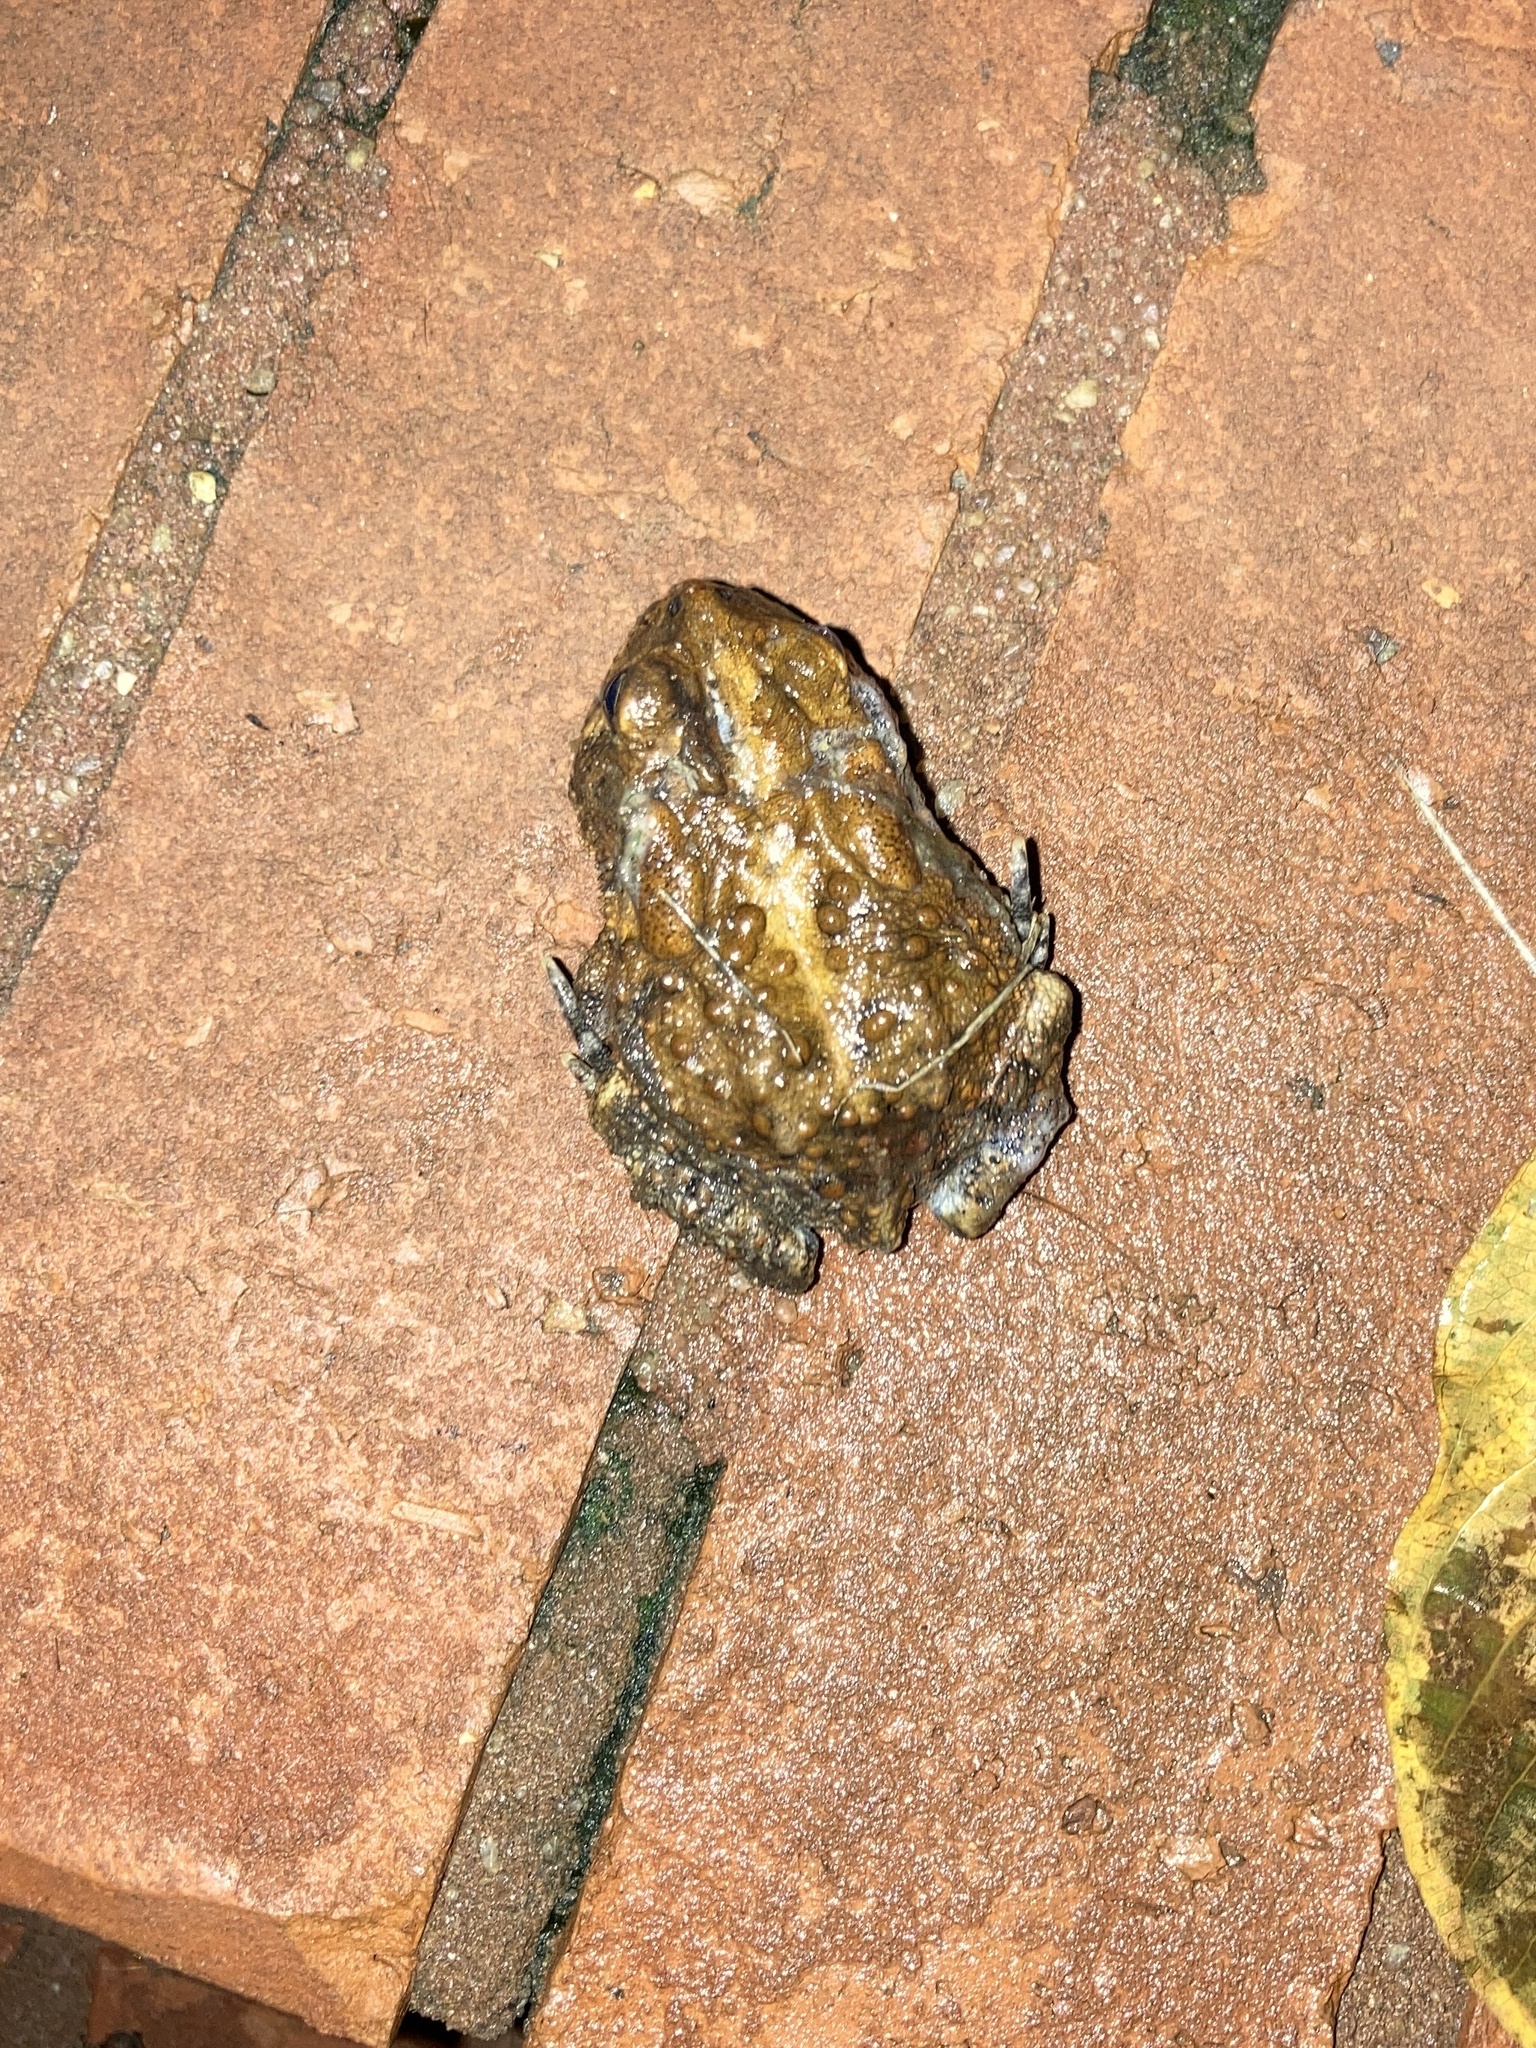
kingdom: Animalia
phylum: Chordata
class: Amphibia
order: Anura
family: Bufonidae
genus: Anaxyrus
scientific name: Anaxyrus terrestris
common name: Southern toad
